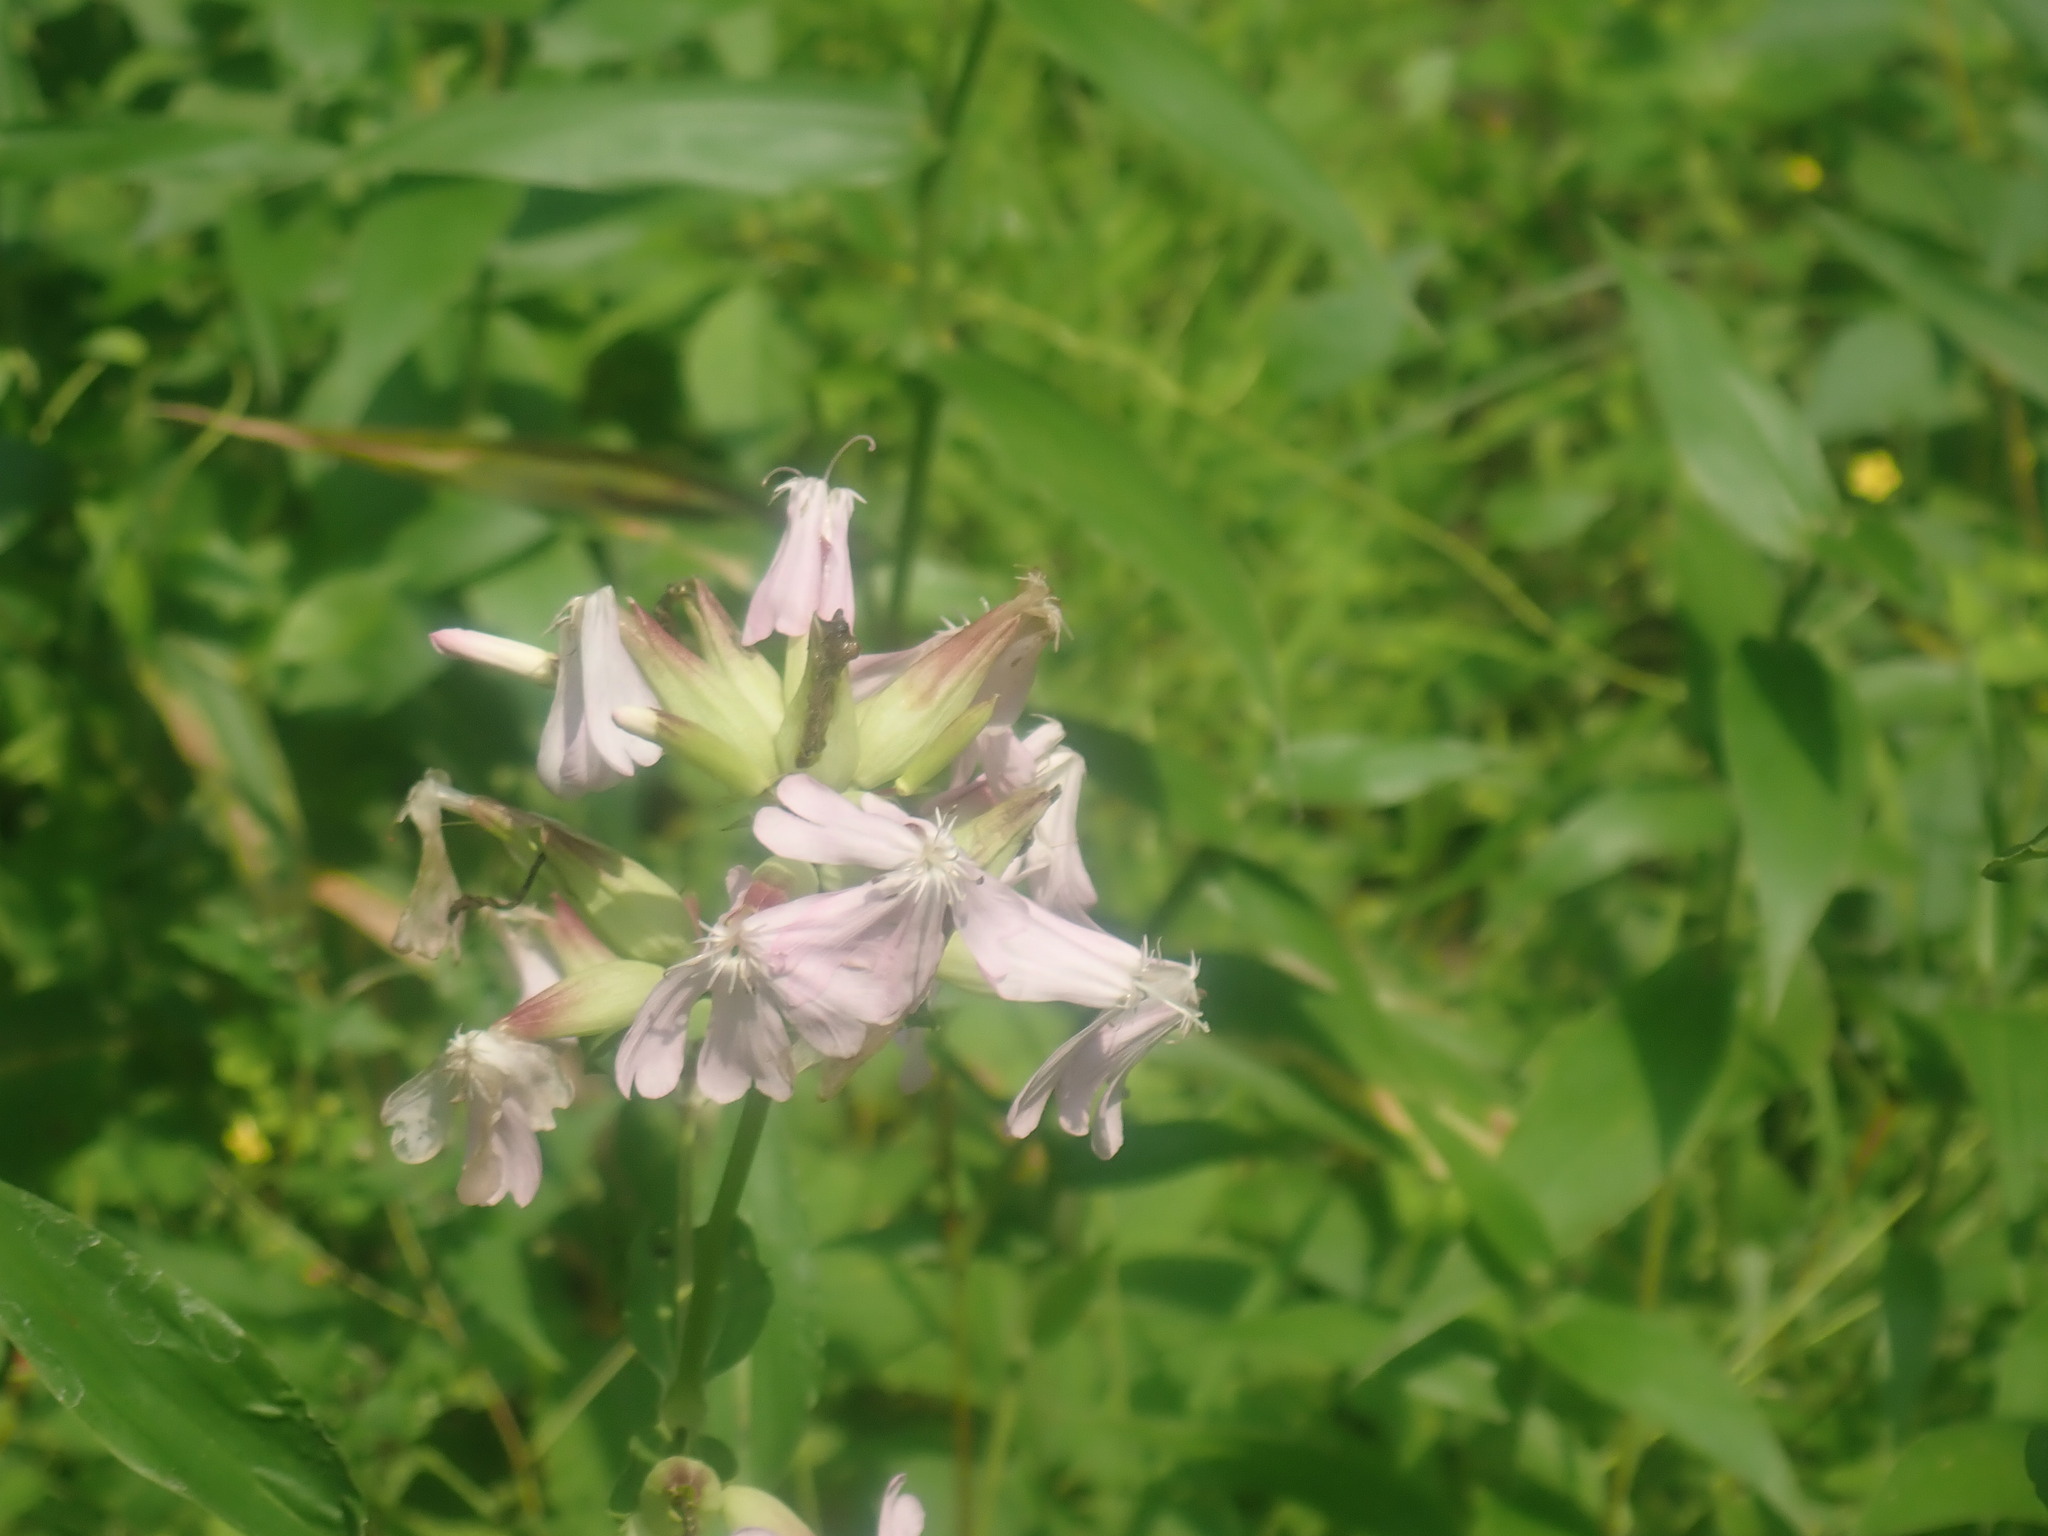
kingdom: Plantae
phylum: Tracheophyta
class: Magnoliopsida
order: Caryophyllales
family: Caryophyllaceae
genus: Saponaria
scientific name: Saponaria officinalis
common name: Soapwort
